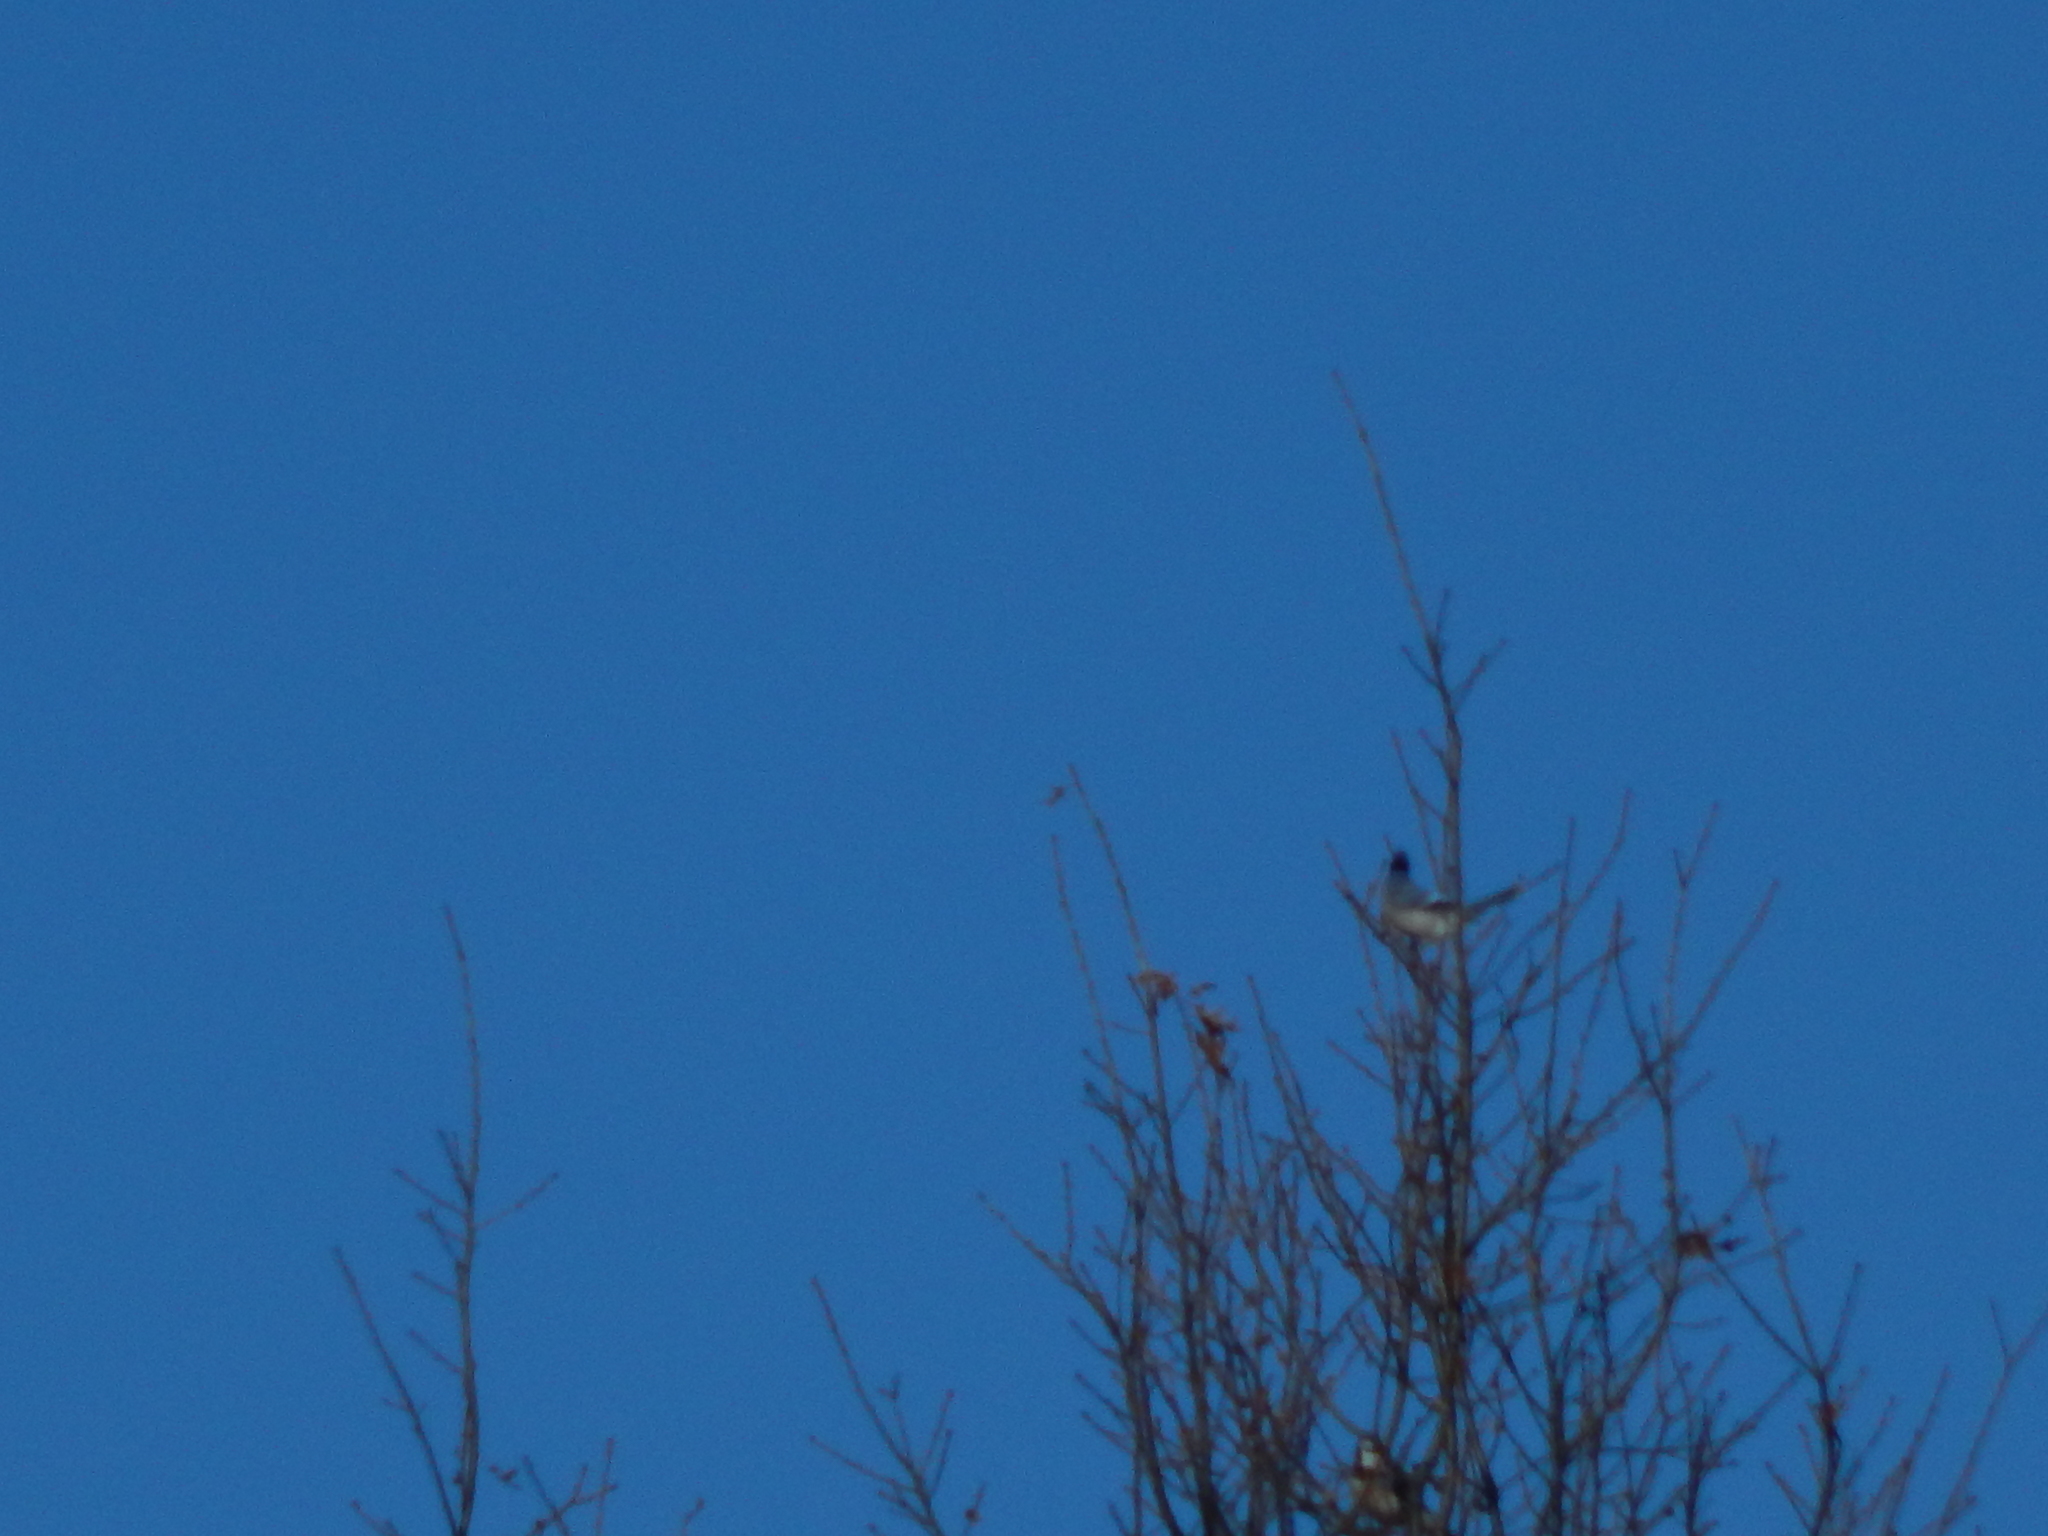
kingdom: Animalia
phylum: Chordata
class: Aves
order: Passeriformes
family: Corvidae
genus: Cyanocitta
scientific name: Cyanocitta cristata
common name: Blue jay
